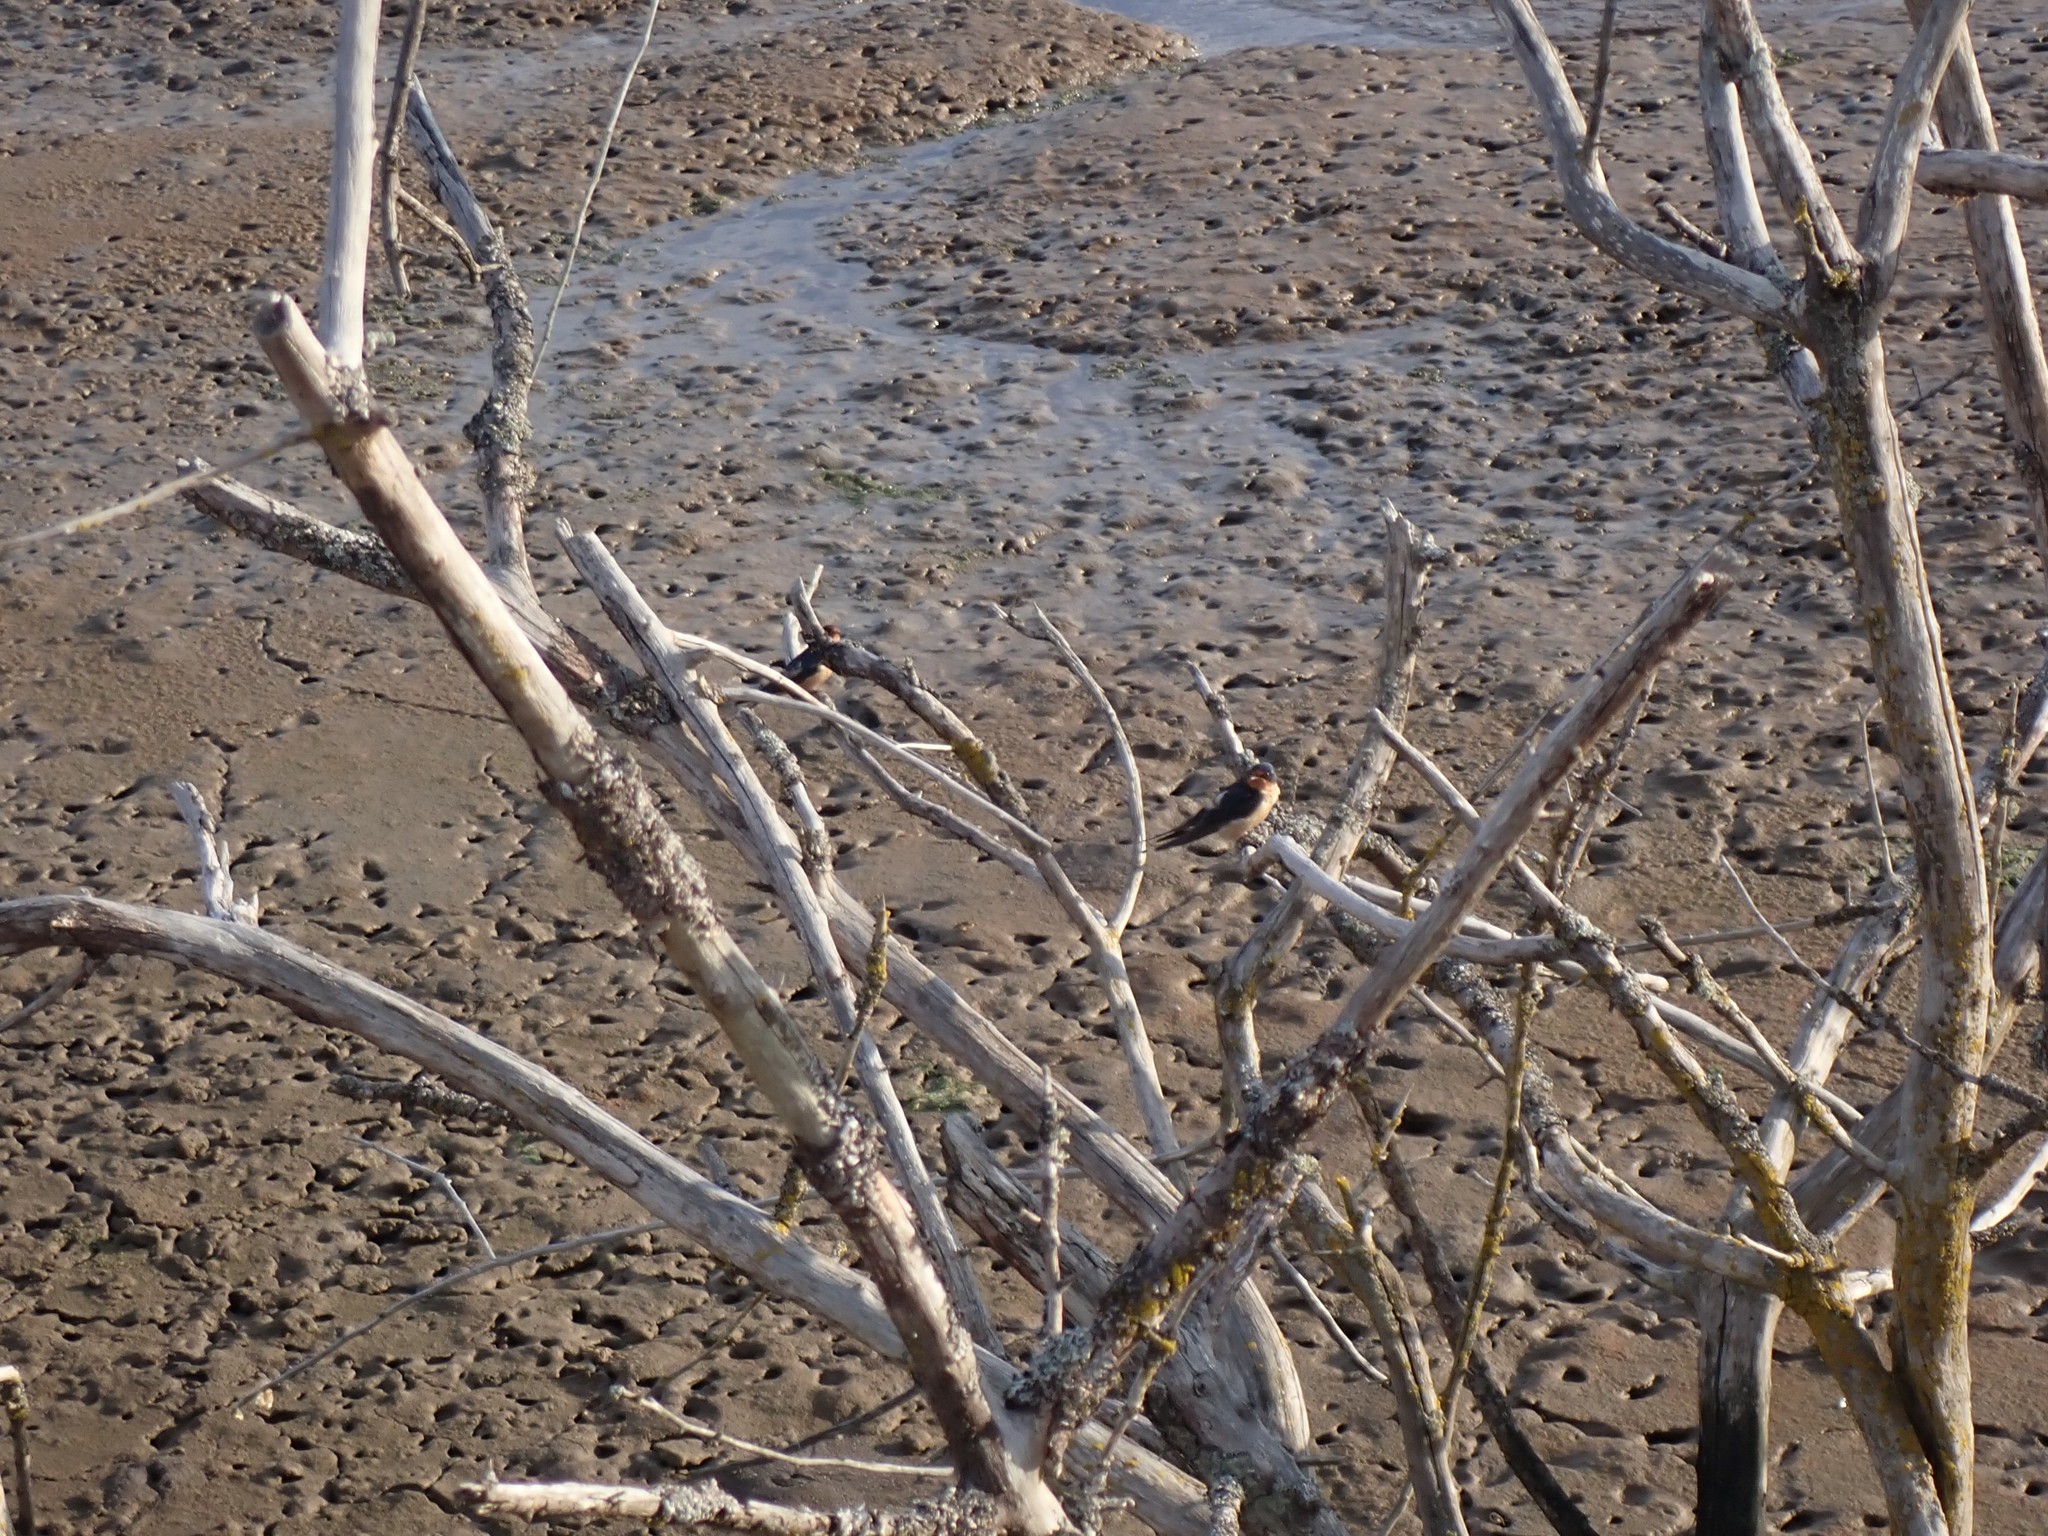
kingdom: Animalia
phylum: Chordata
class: Aves
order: Passeriformes
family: Hirundinidae
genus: Hirundo
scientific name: Hirundo rustica
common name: Barn swallow
